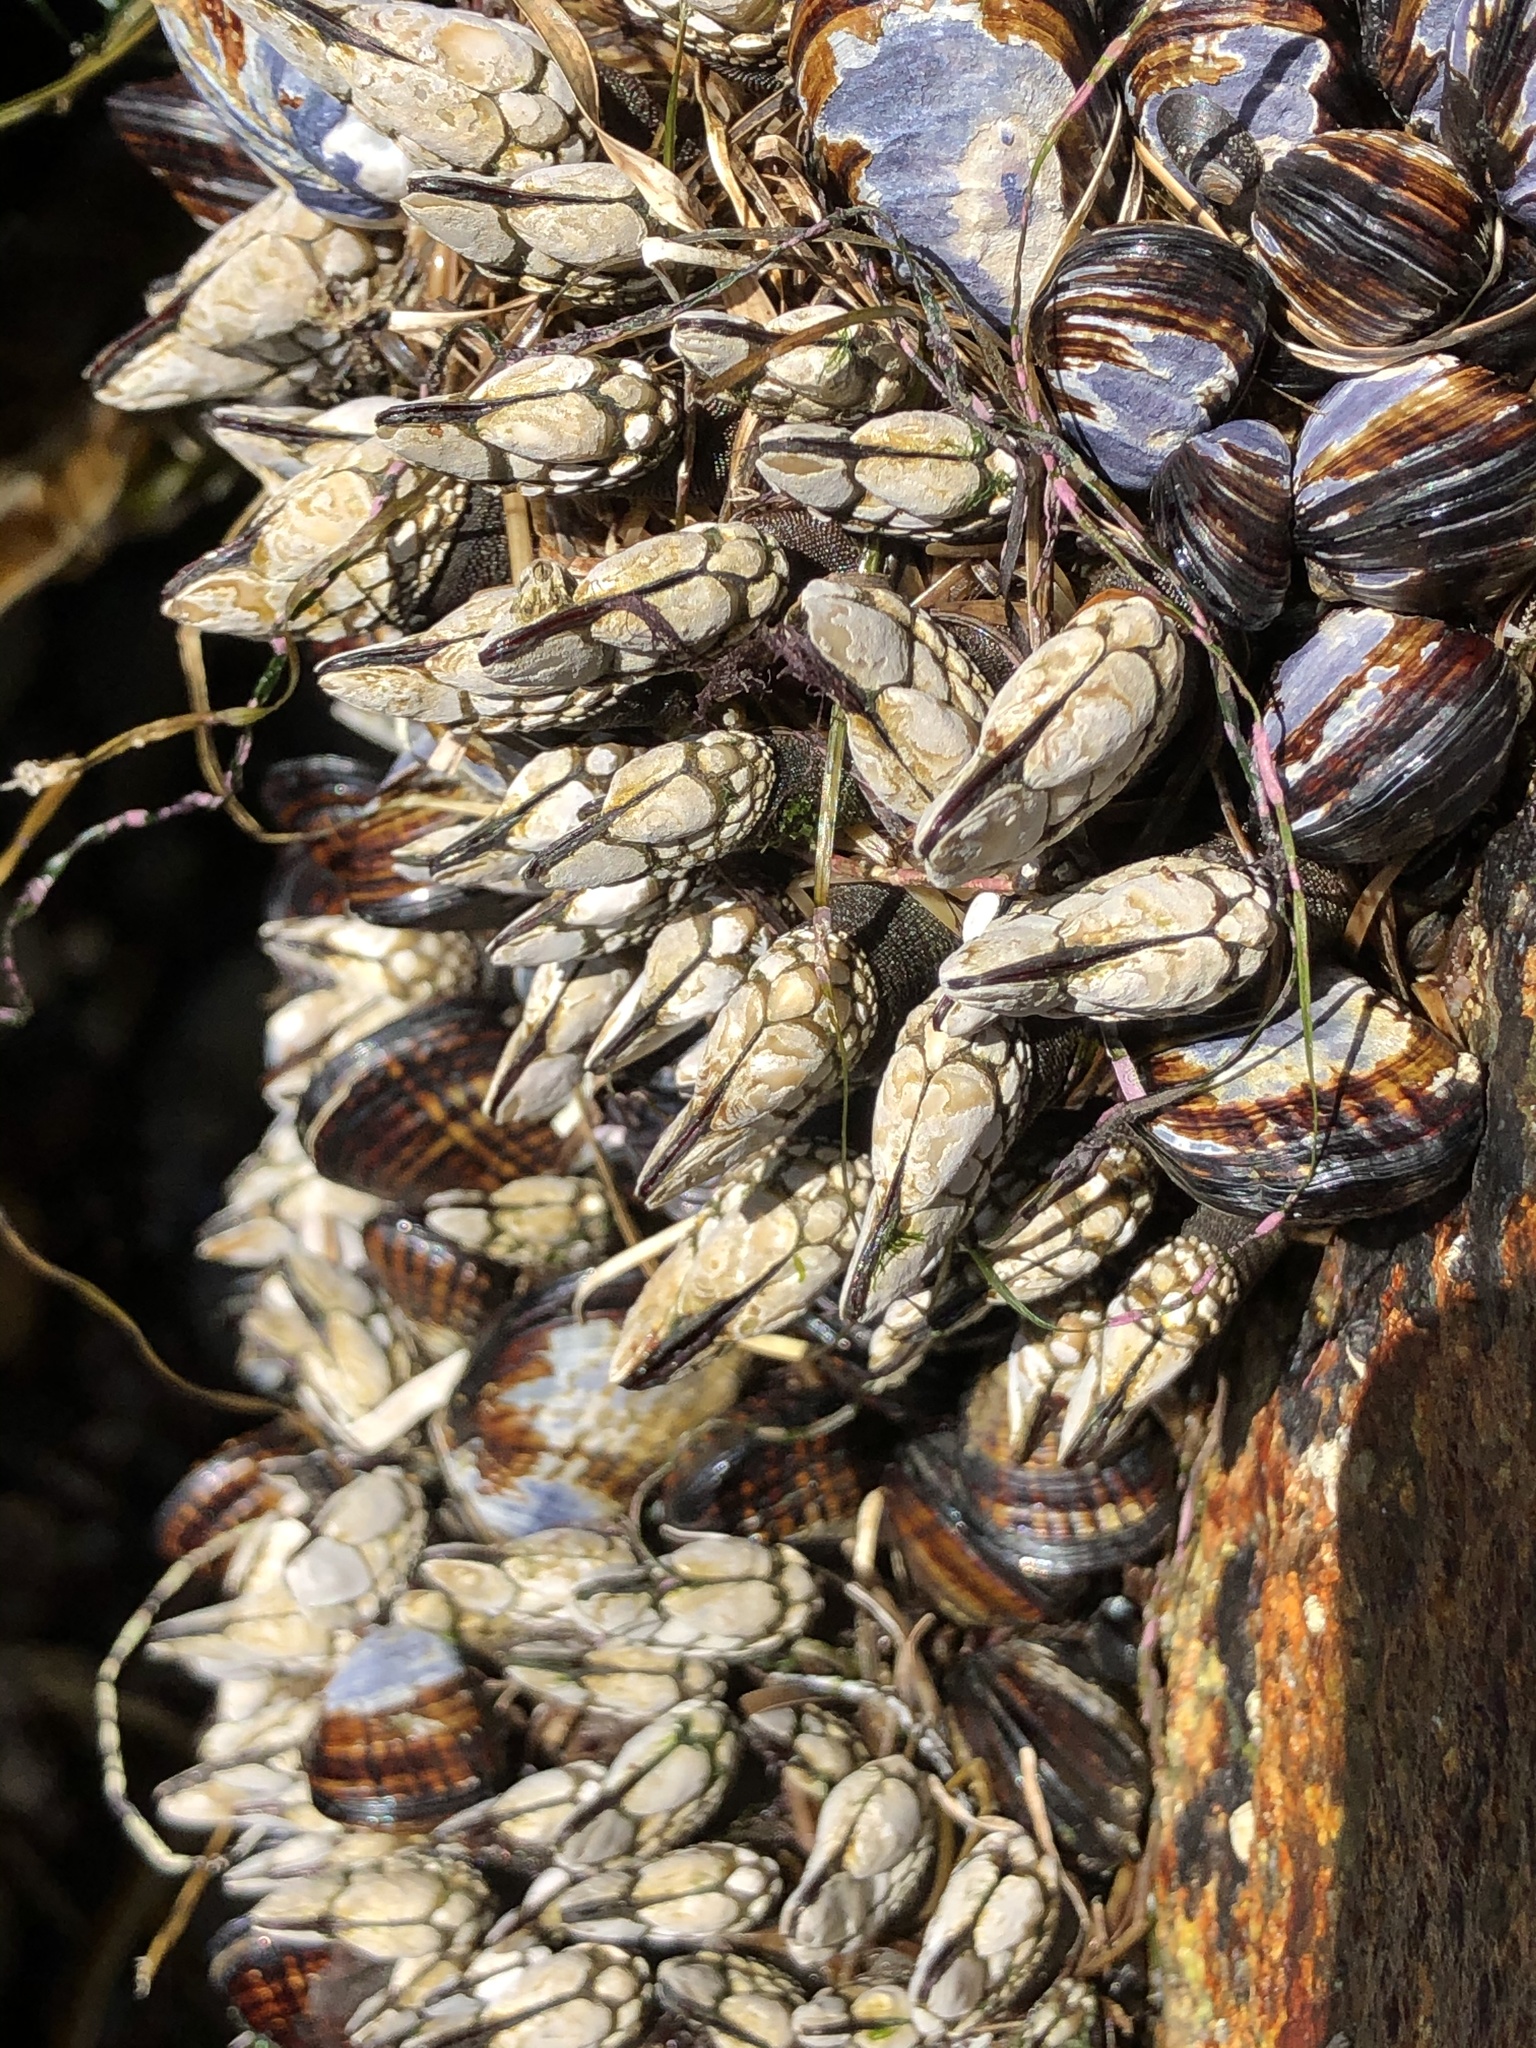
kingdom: Animalia
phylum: Arthropoda
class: Maxillopoda
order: Pedunculata
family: Pollicipedidae
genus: Pollicipes
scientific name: Pollicipes polymerus
